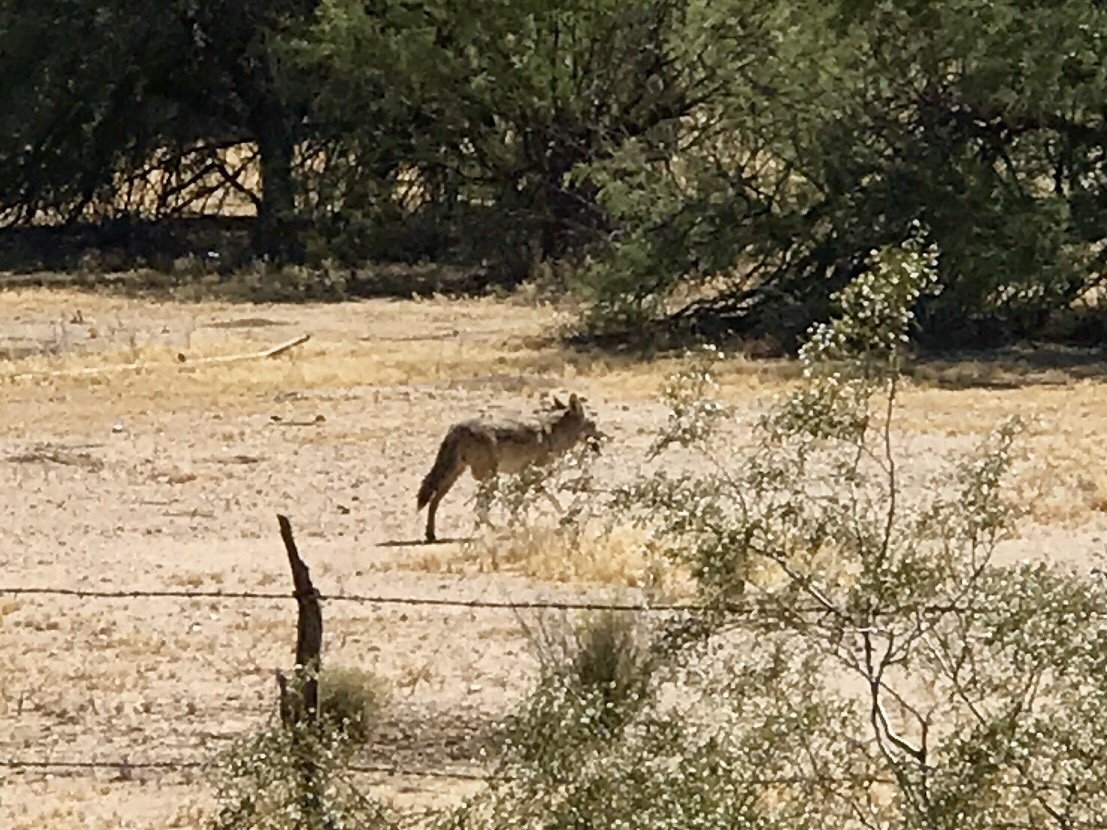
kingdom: Animalia
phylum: Chordata
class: Mammalia
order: Carnivora
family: Canidae
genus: Canis
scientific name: Canis latrans
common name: Coyote
